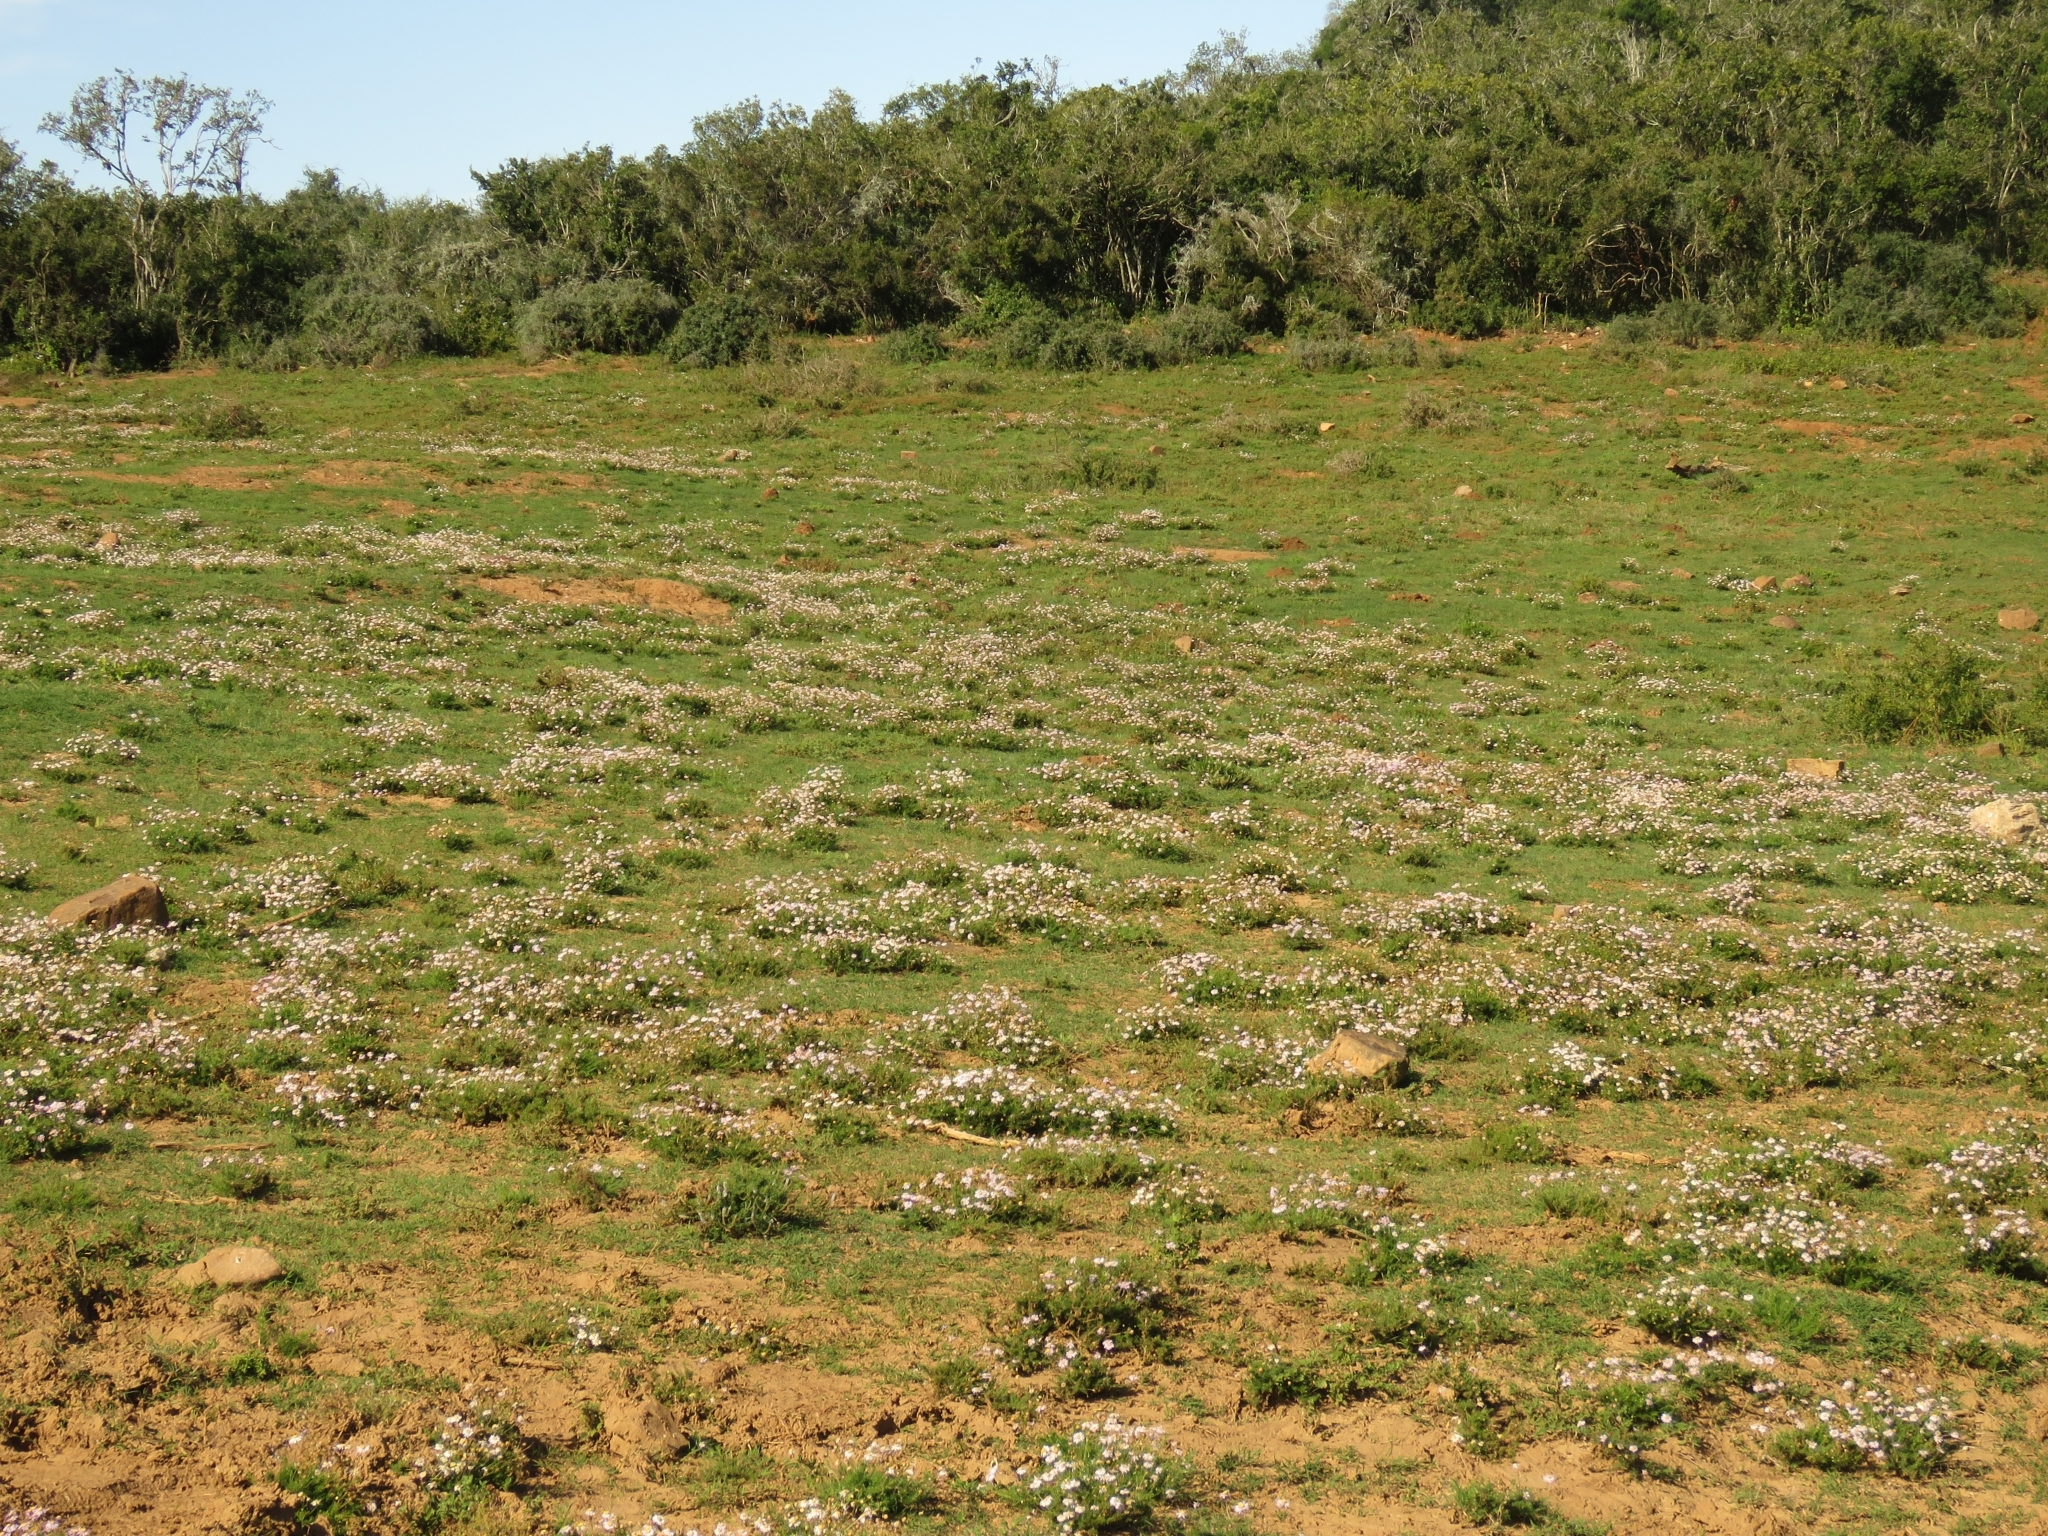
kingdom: Plantae
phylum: Tracheophyta
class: Magnoliopsida
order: Asterales
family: Asteraceae
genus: Felicia
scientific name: Felicia muricata
